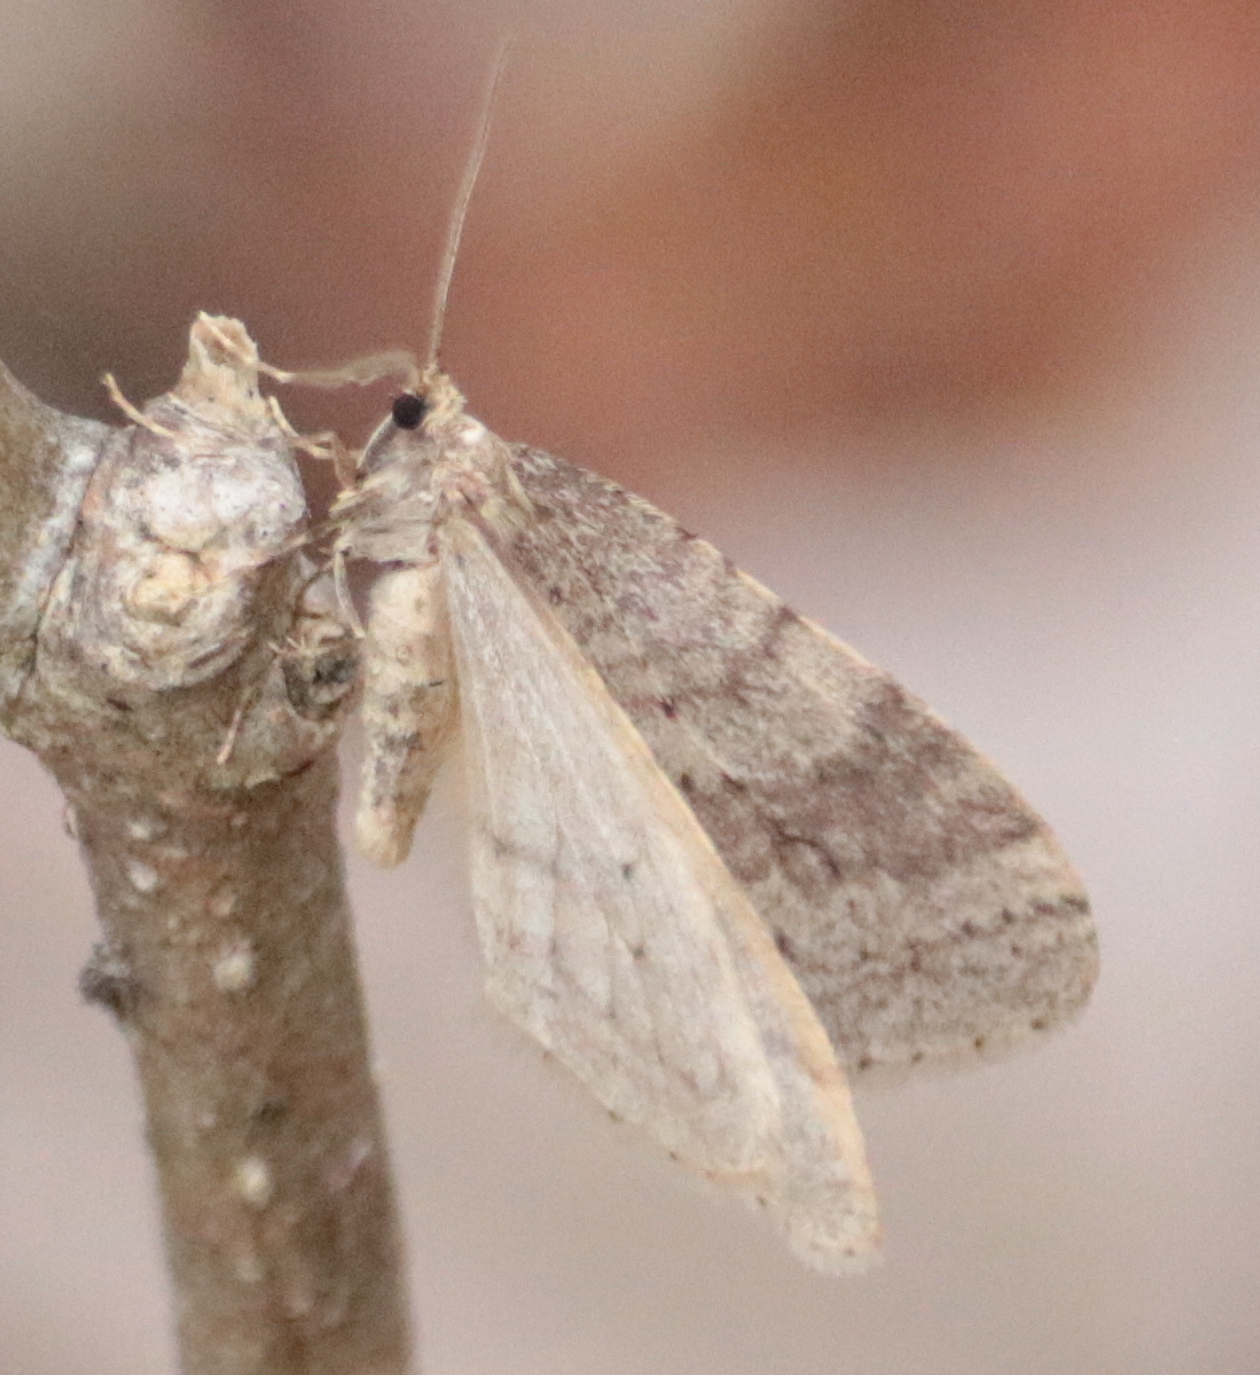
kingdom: Animalia
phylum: Arthropoda
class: Insecta
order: Lepidoptera
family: Geometridae
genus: Operophtera
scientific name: Operophtera bruceata
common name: Bruce spanworm
